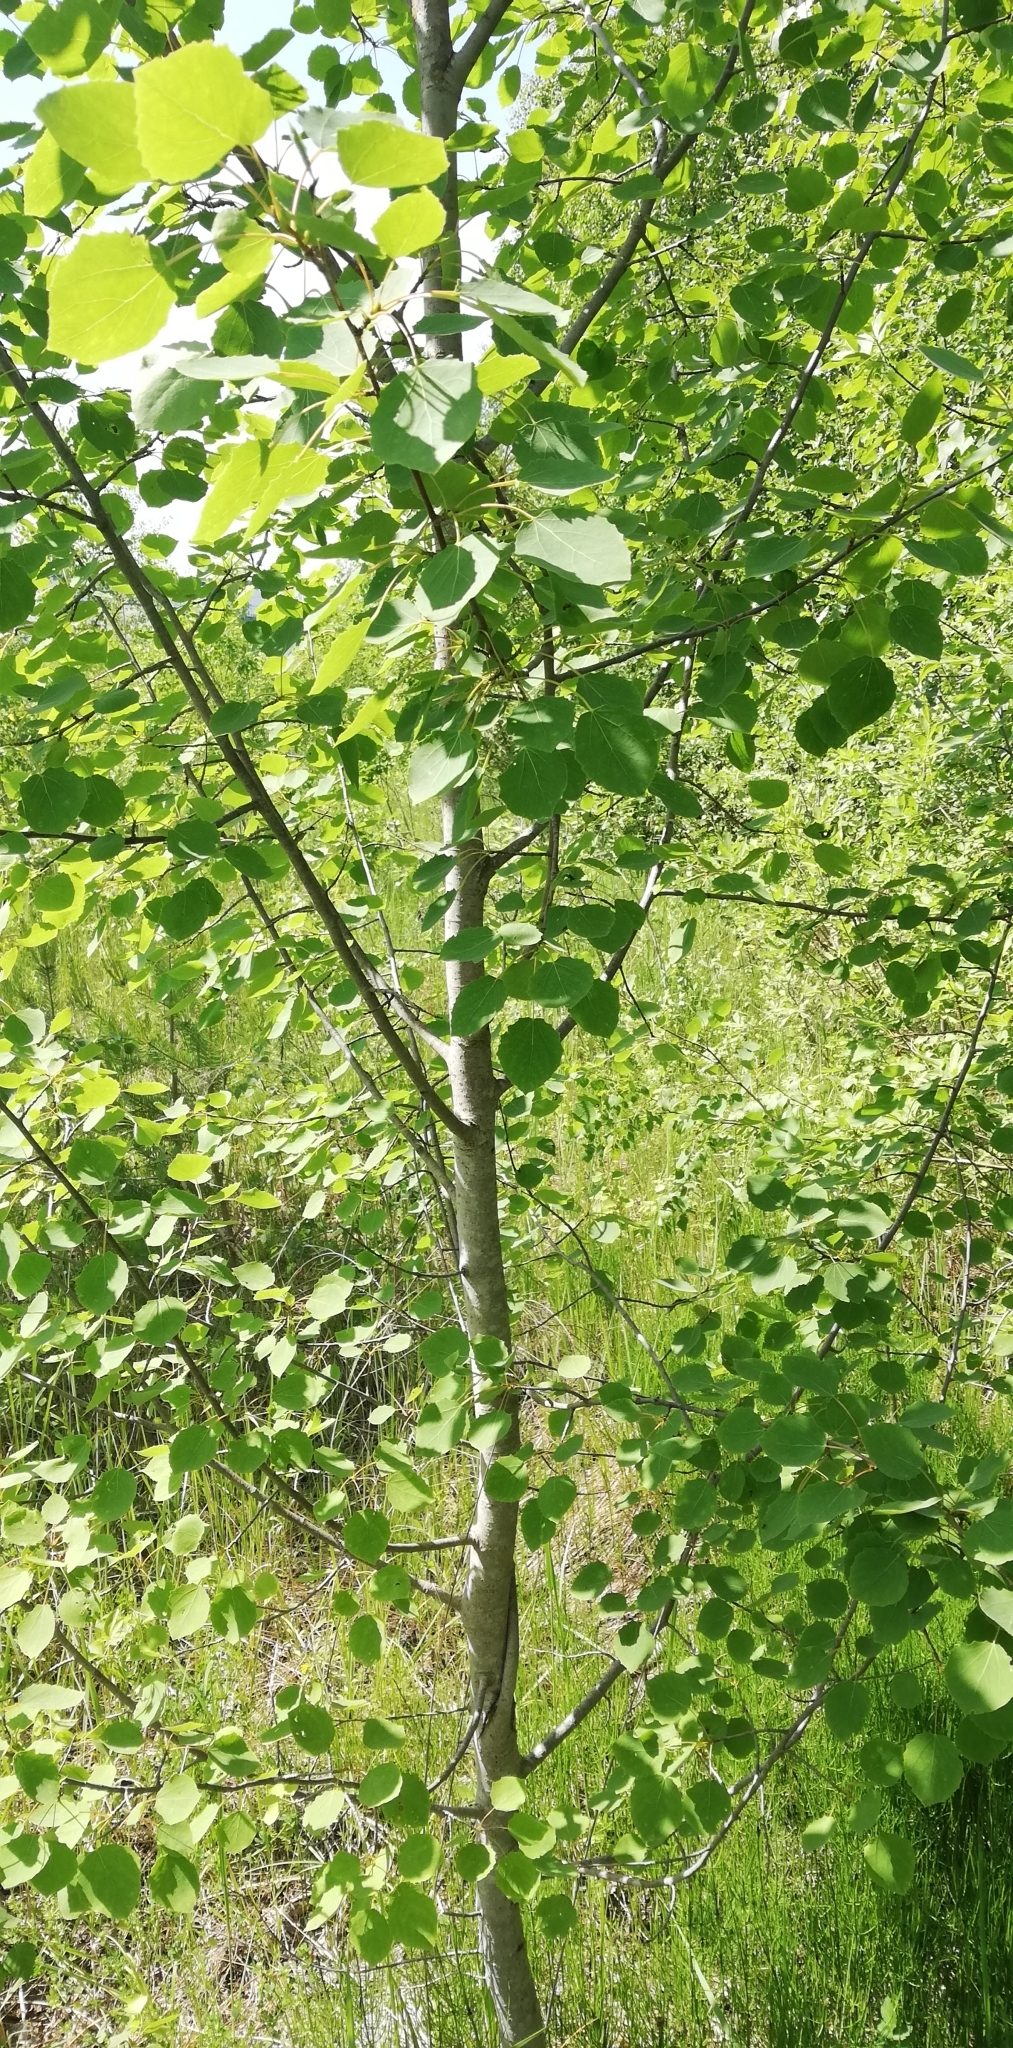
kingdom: Plantae
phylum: Tracheophyta
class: Magnoliopsida
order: Malpighiales
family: Salicaceae
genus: Populus
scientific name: Populus tremula
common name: European aspen
